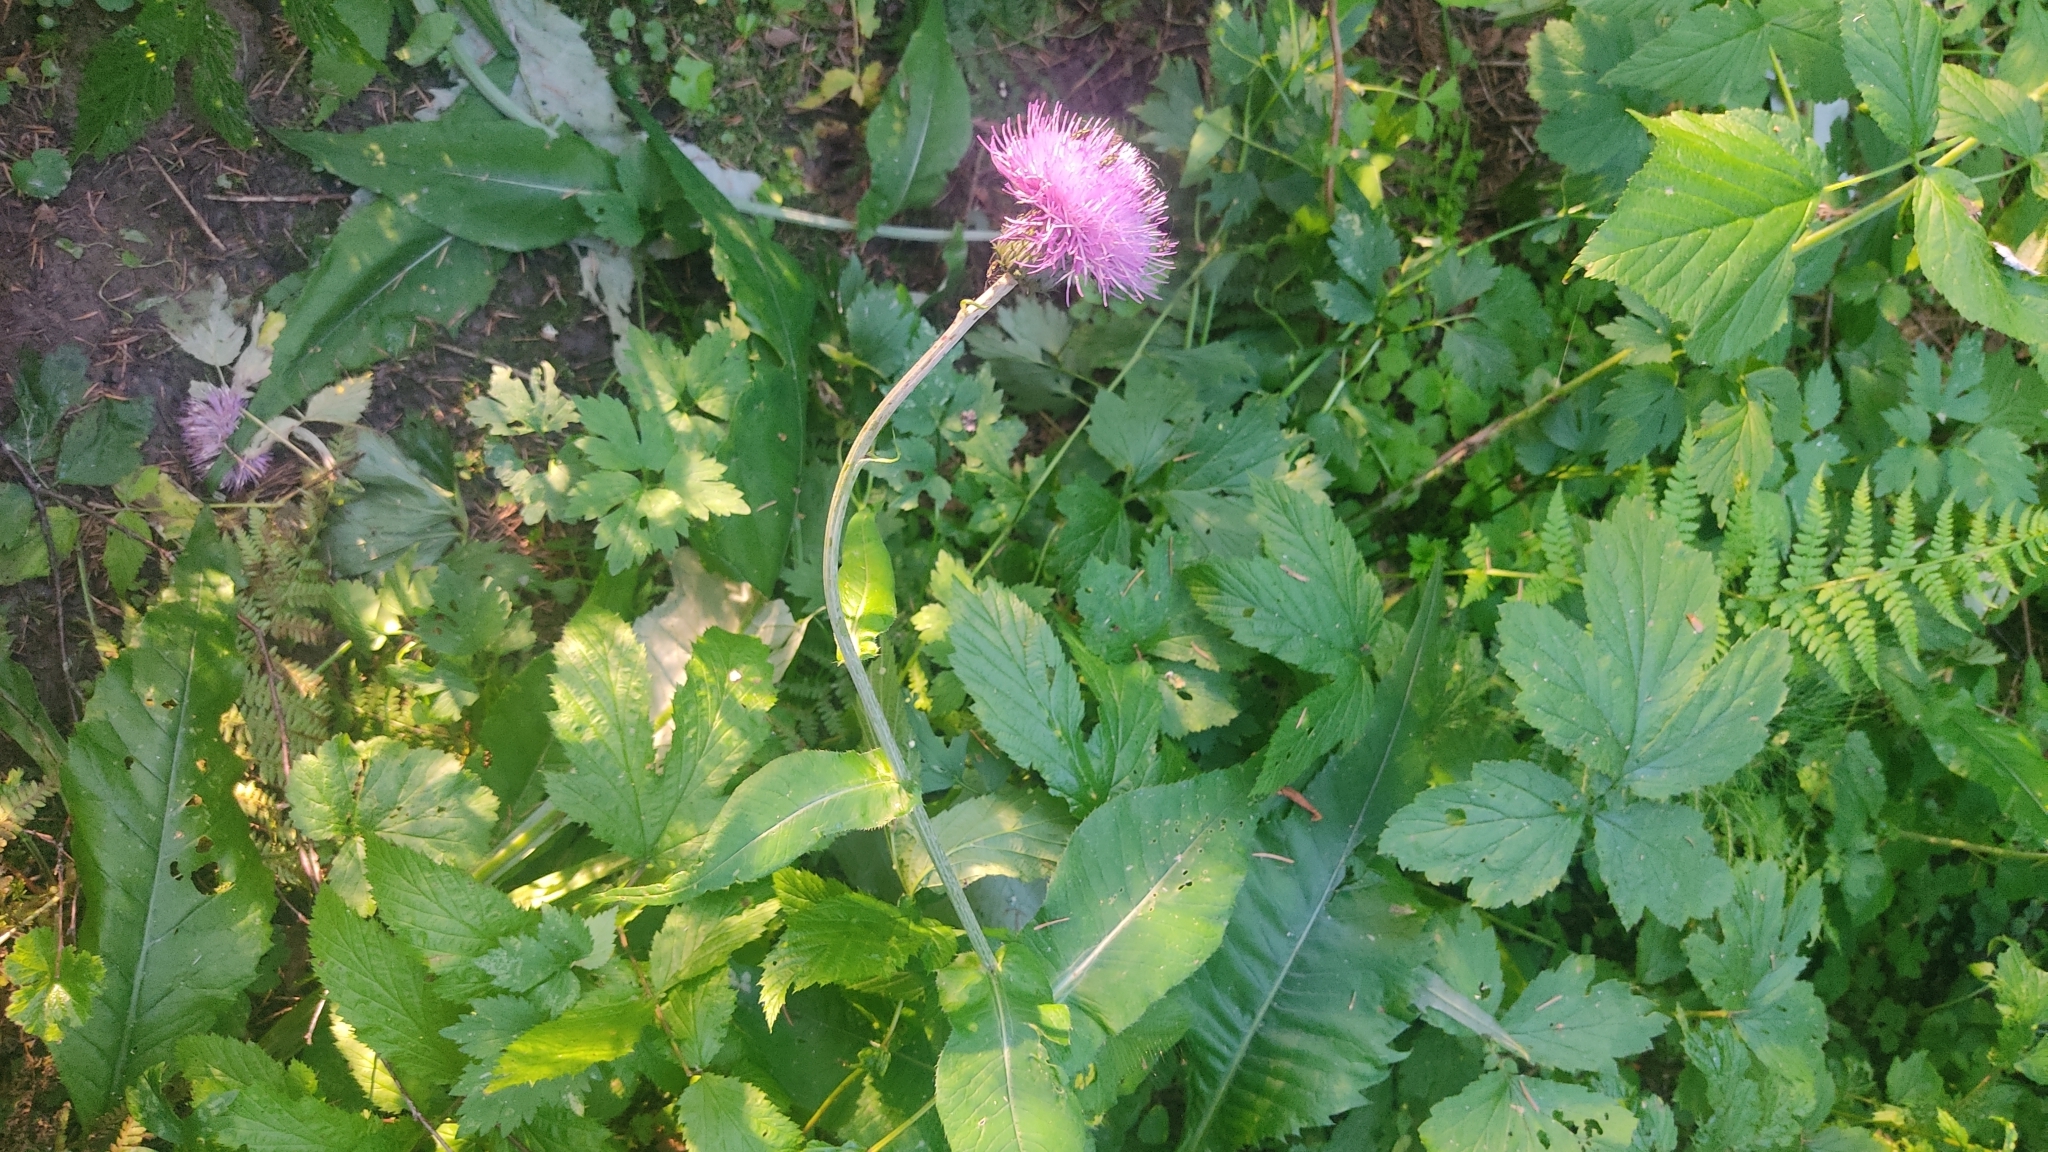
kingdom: Plantae
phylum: Tracheophyta
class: Magnoliopsida
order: Asterales
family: Asteraceae
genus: Cirsium
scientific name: Cirsium heterophyllum
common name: Melancholy thistle
